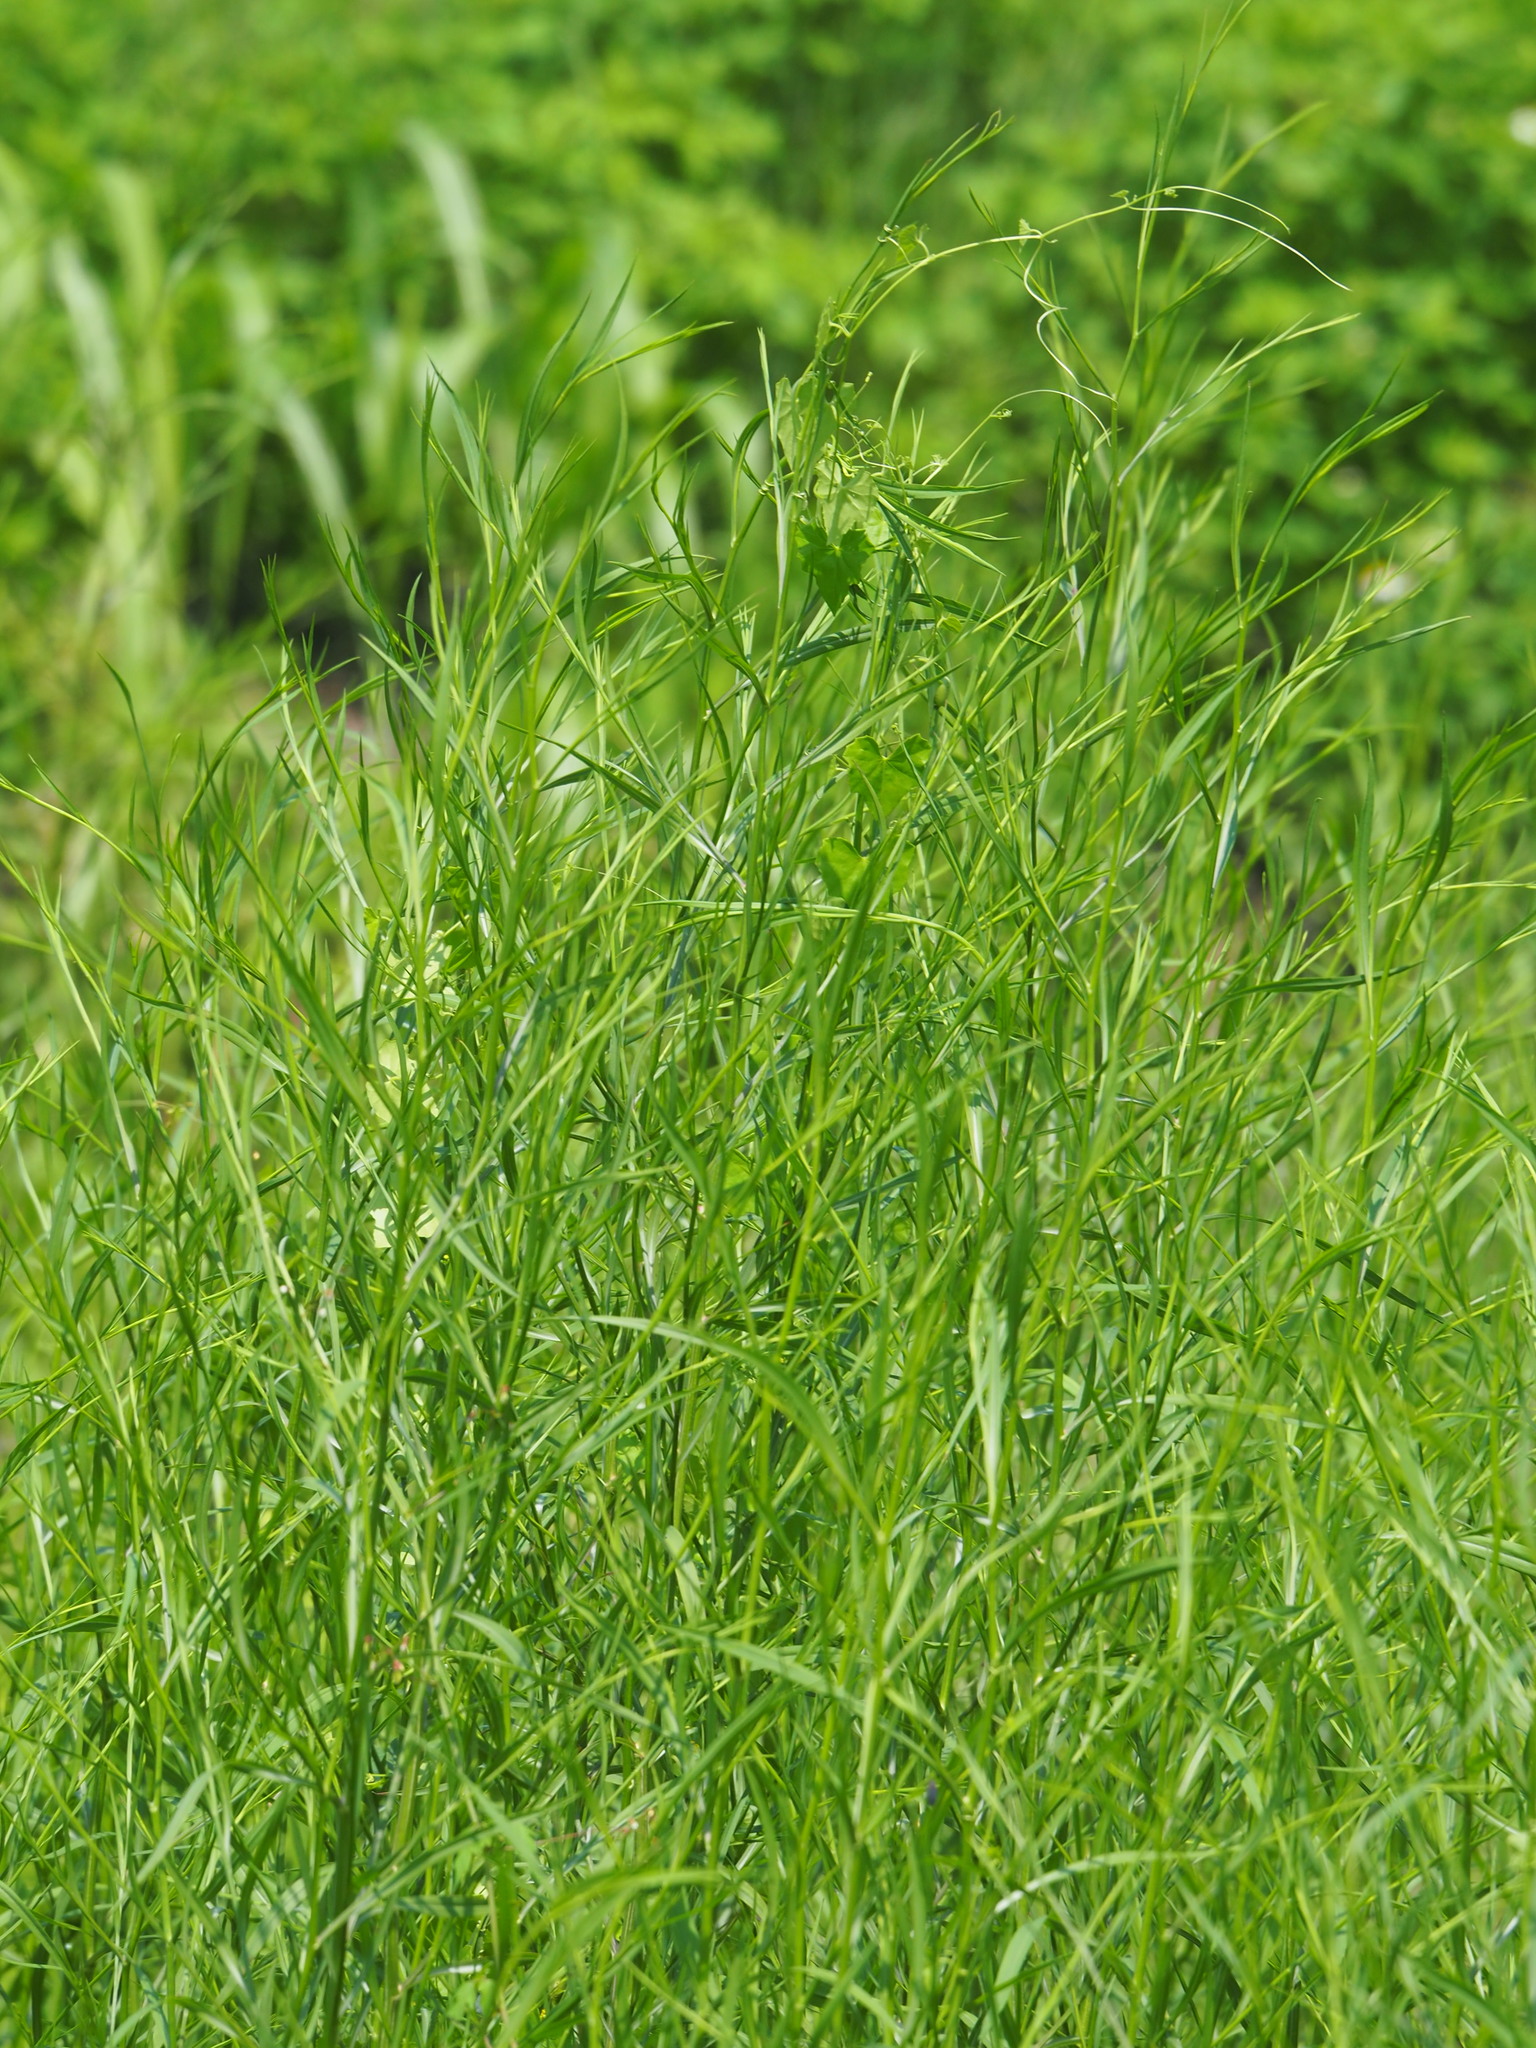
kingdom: Plantae
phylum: Tracheophyta
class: Magnoliopsida
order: Asterales
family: Asteraceae
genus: Symphyotrichum
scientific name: Symphyotrichum subulatum
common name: Annual saltmarsh aster
